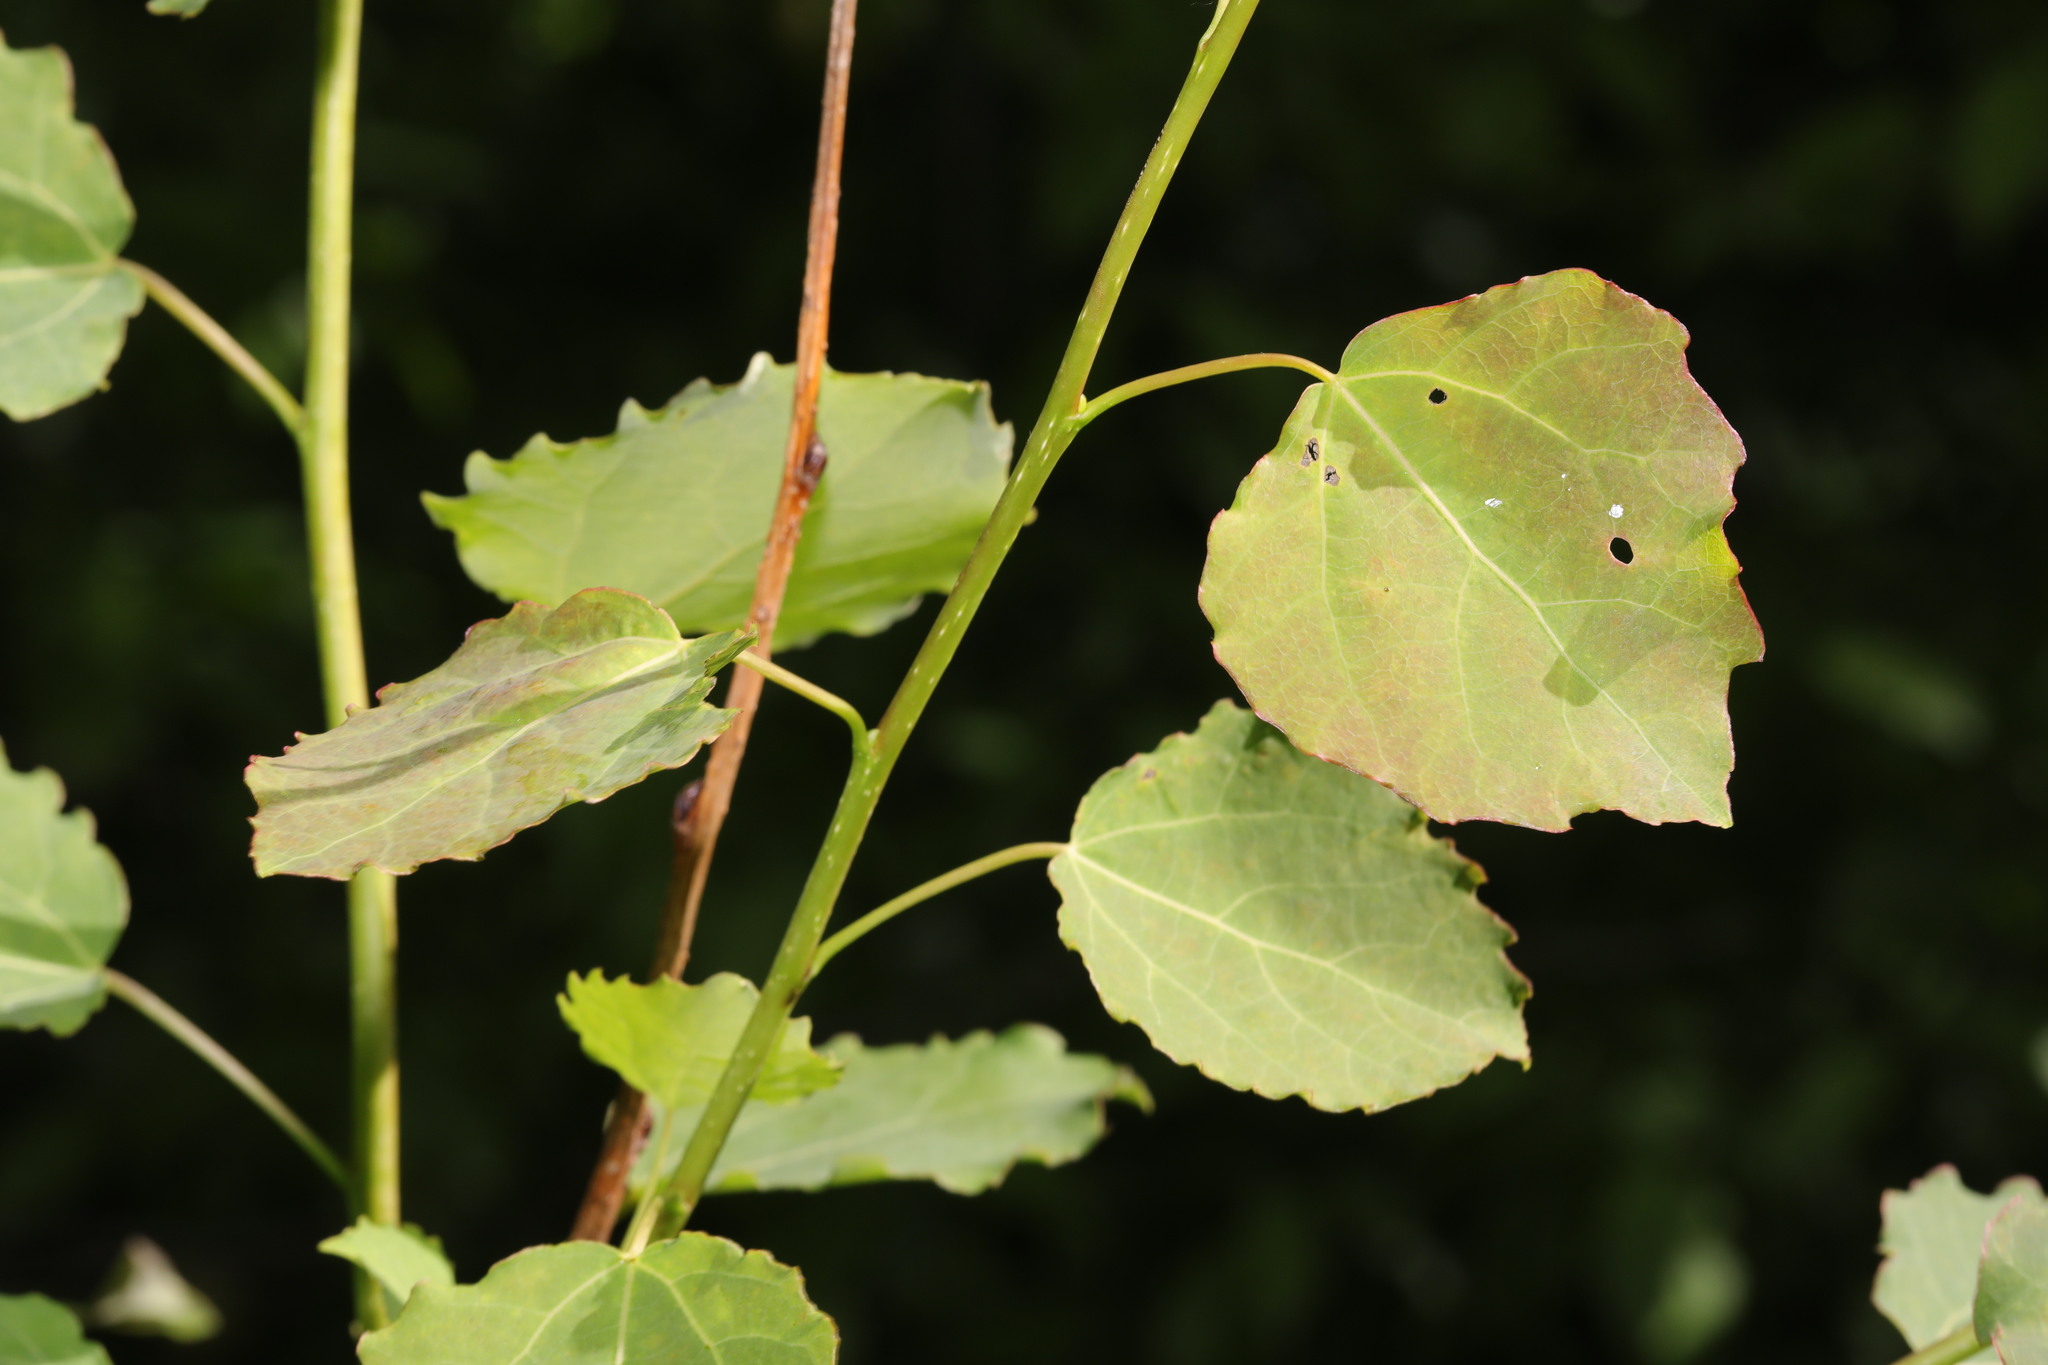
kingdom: Plantae
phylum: Tracheophyta
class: Magnoliopsida
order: Malpighiales
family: Salicaceae
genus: Populus
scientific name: Populus tremula
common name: European aspen
